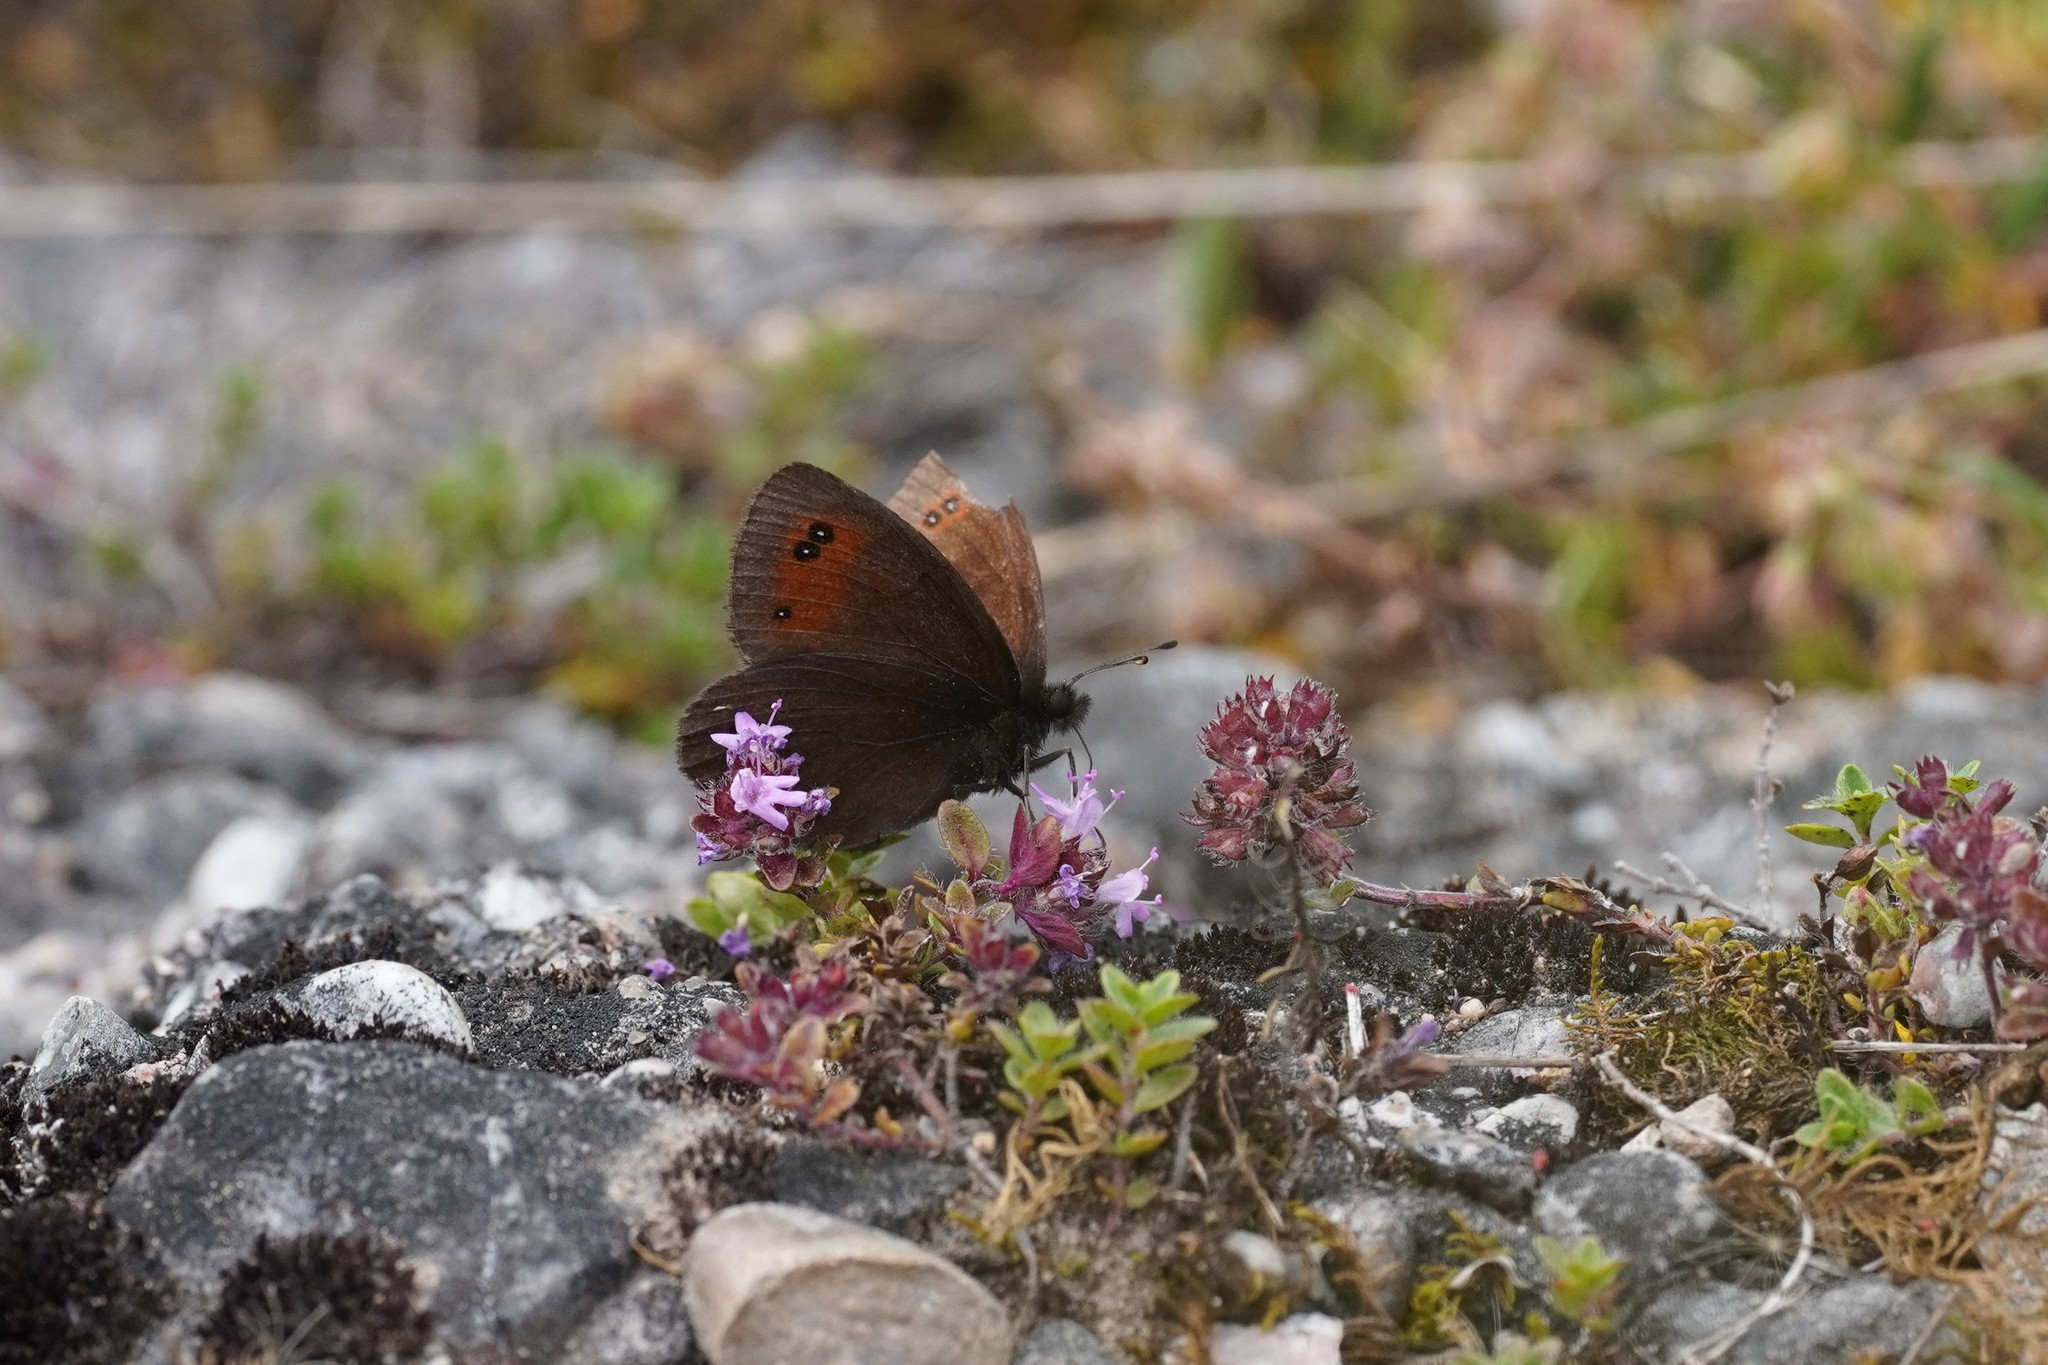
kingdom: Animalia
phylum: Arthropoda
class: Insecta
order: Lepidoptera
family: Nymphalidae
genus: Erebia
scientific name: Erebia meolans
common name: Piedmont ringlet
